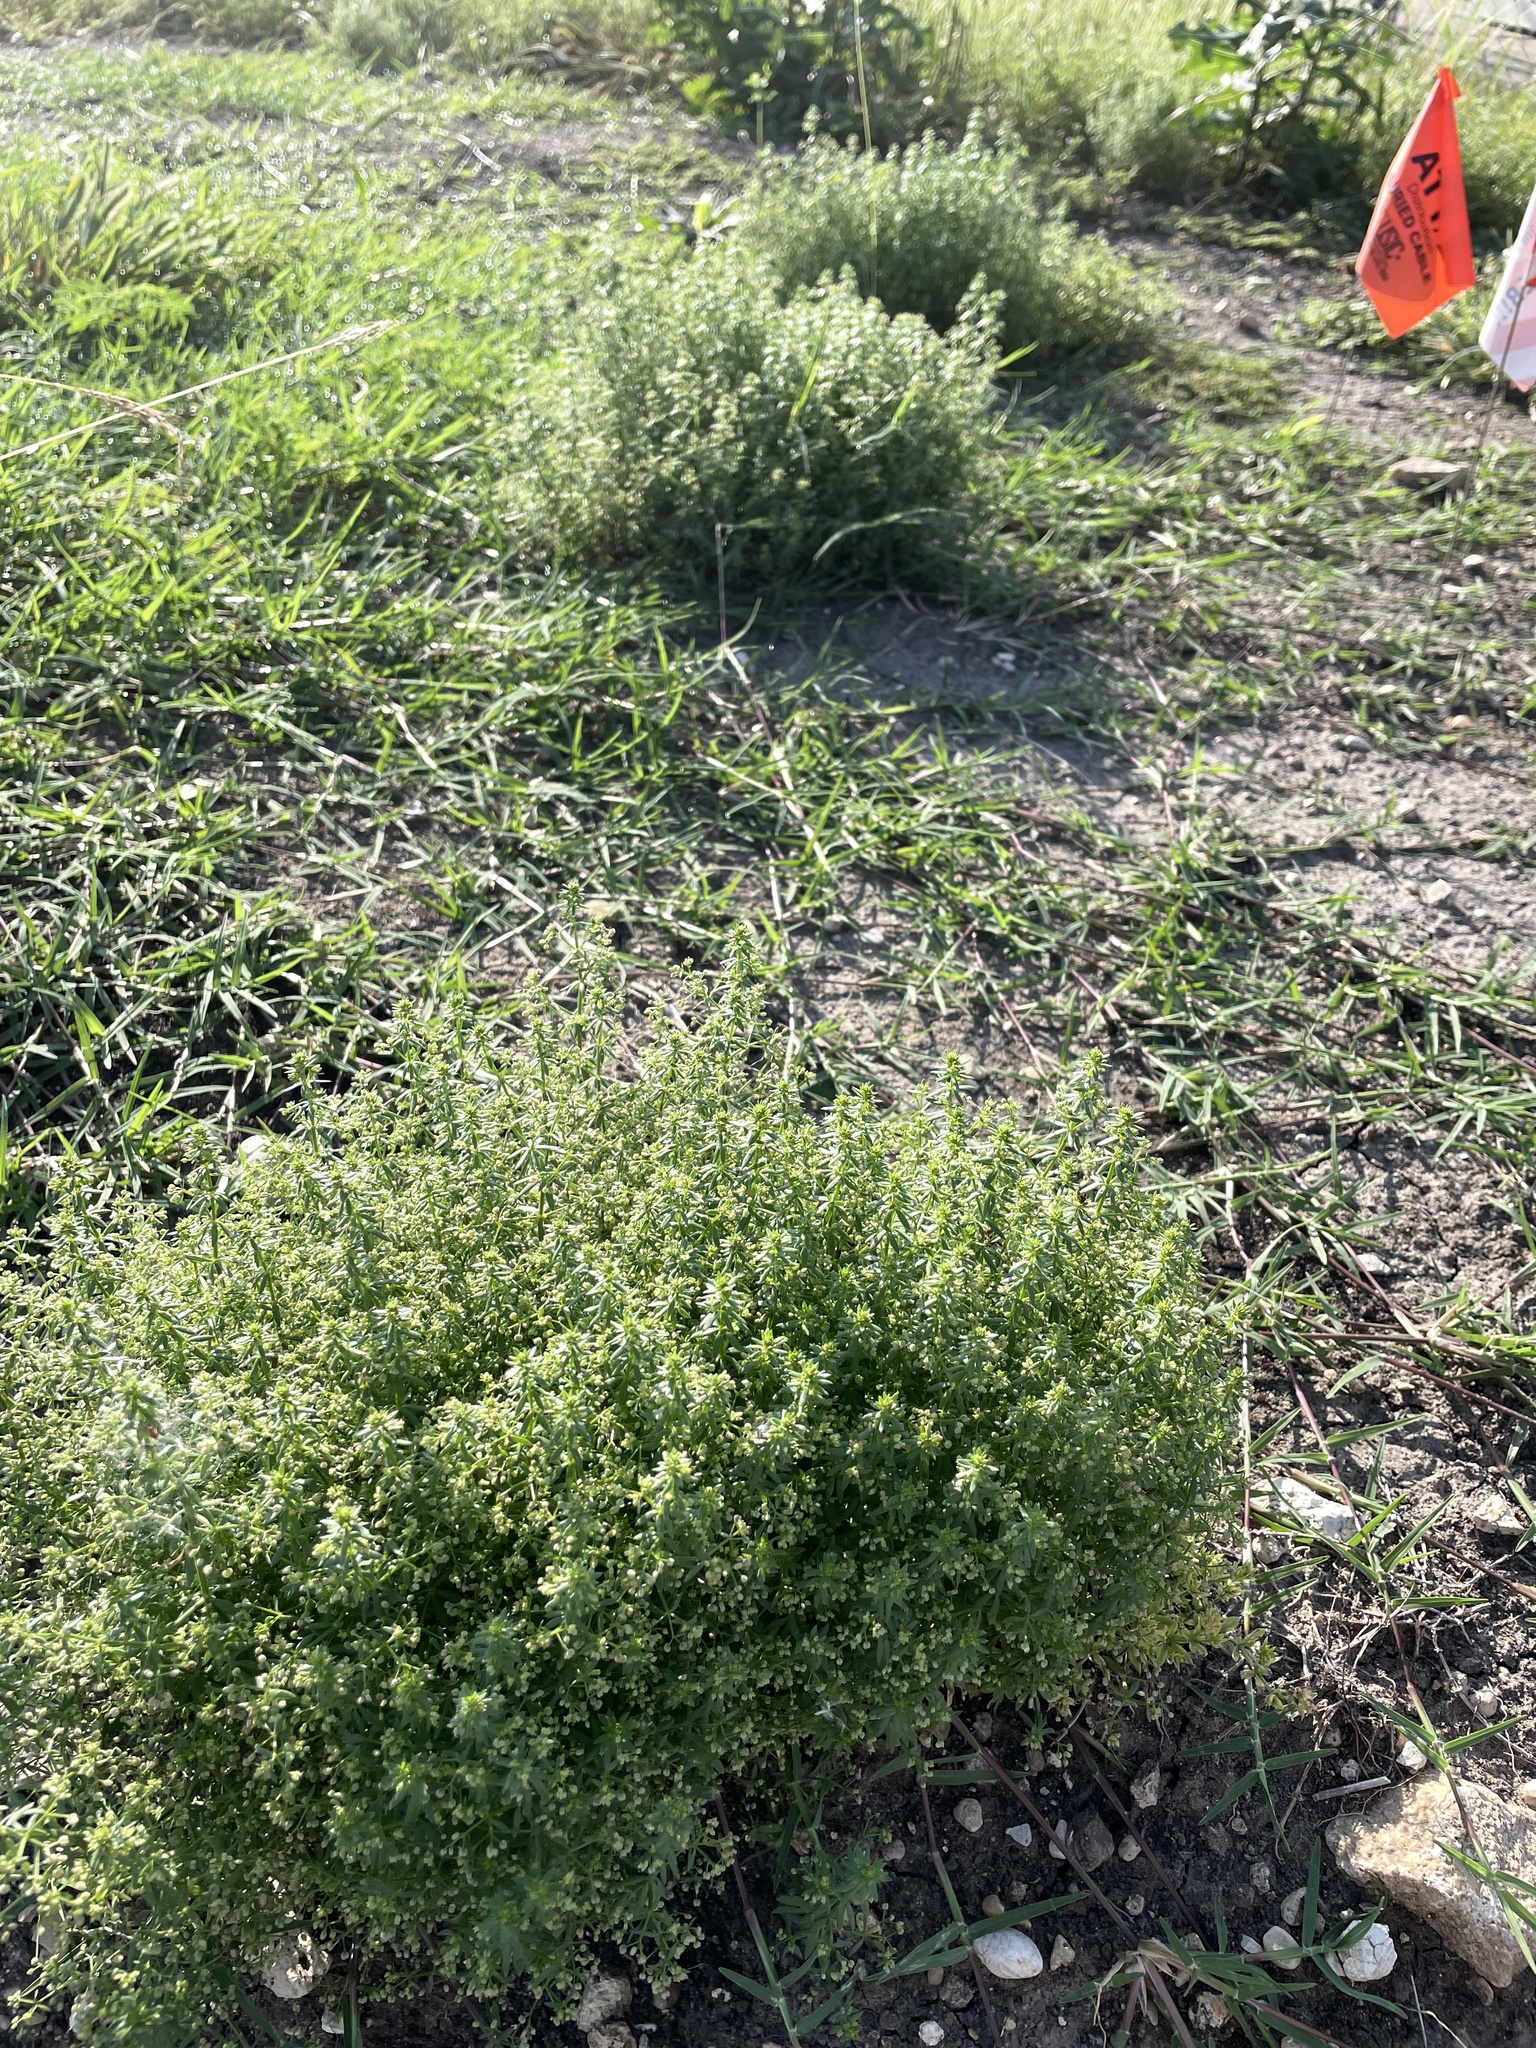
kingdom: Plantae
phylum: Tracheophyta
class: Magnoliopsida
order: Gentianales
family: Rubiaceae
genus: Galium
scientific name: Galium parisiense
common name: Wall bedstraw
